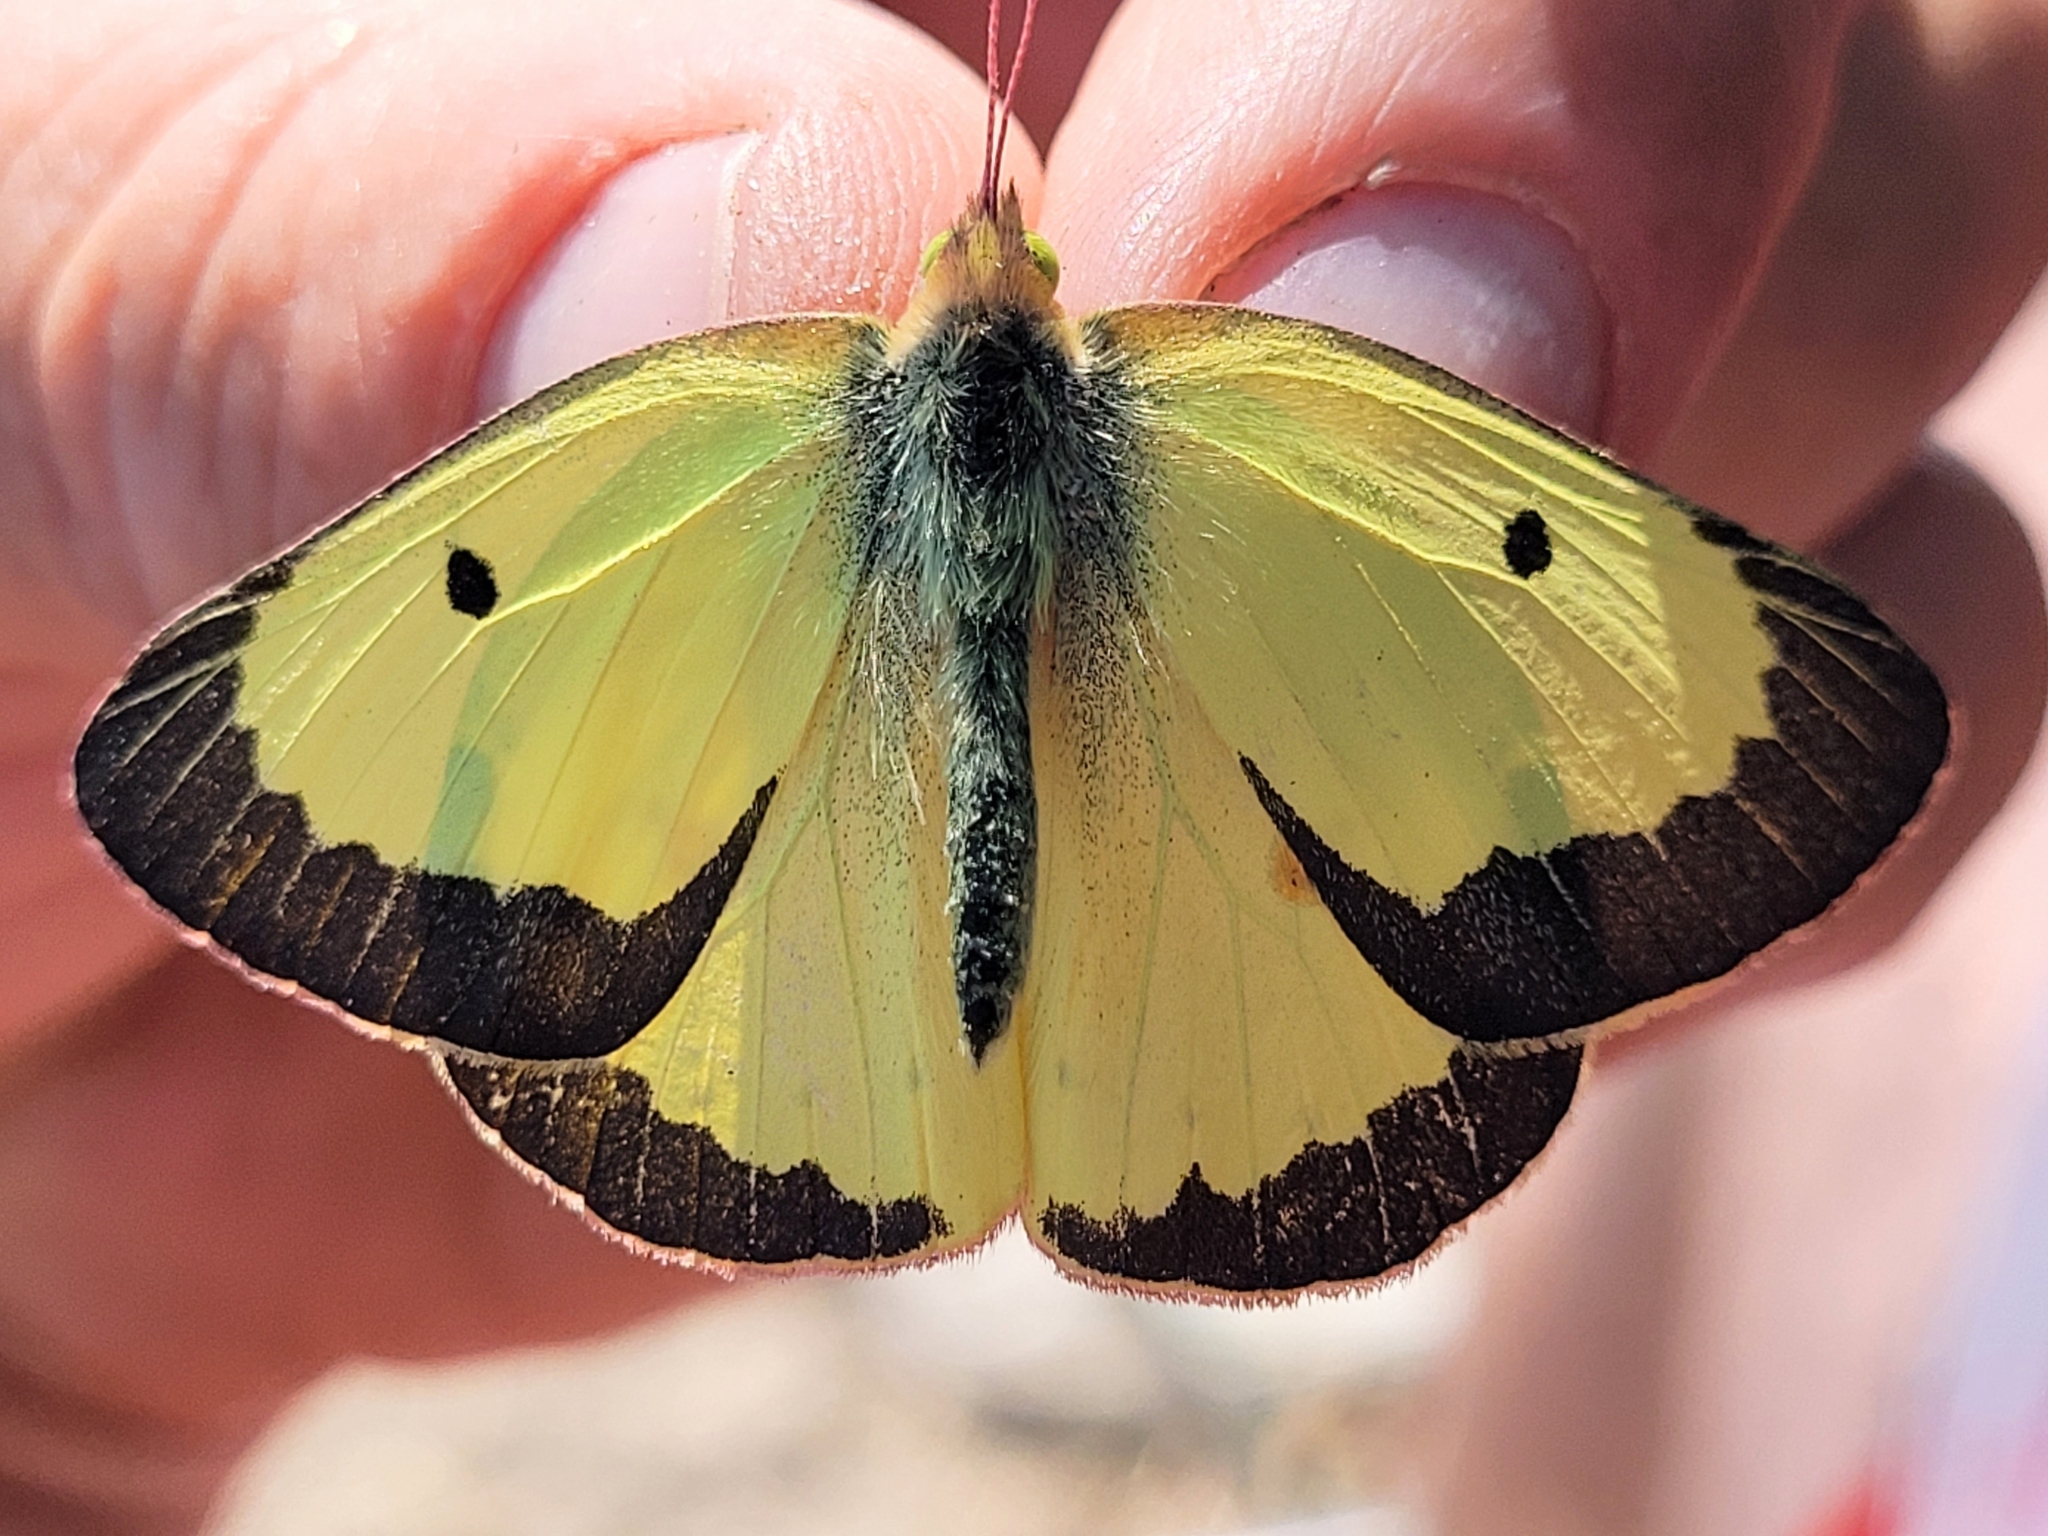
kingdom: Animalia
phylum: Arthropoda
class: Insecta
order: Lepidoptera
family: Pieridae
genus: Colias
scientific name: Colias philodice
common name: Clouded sulphur
